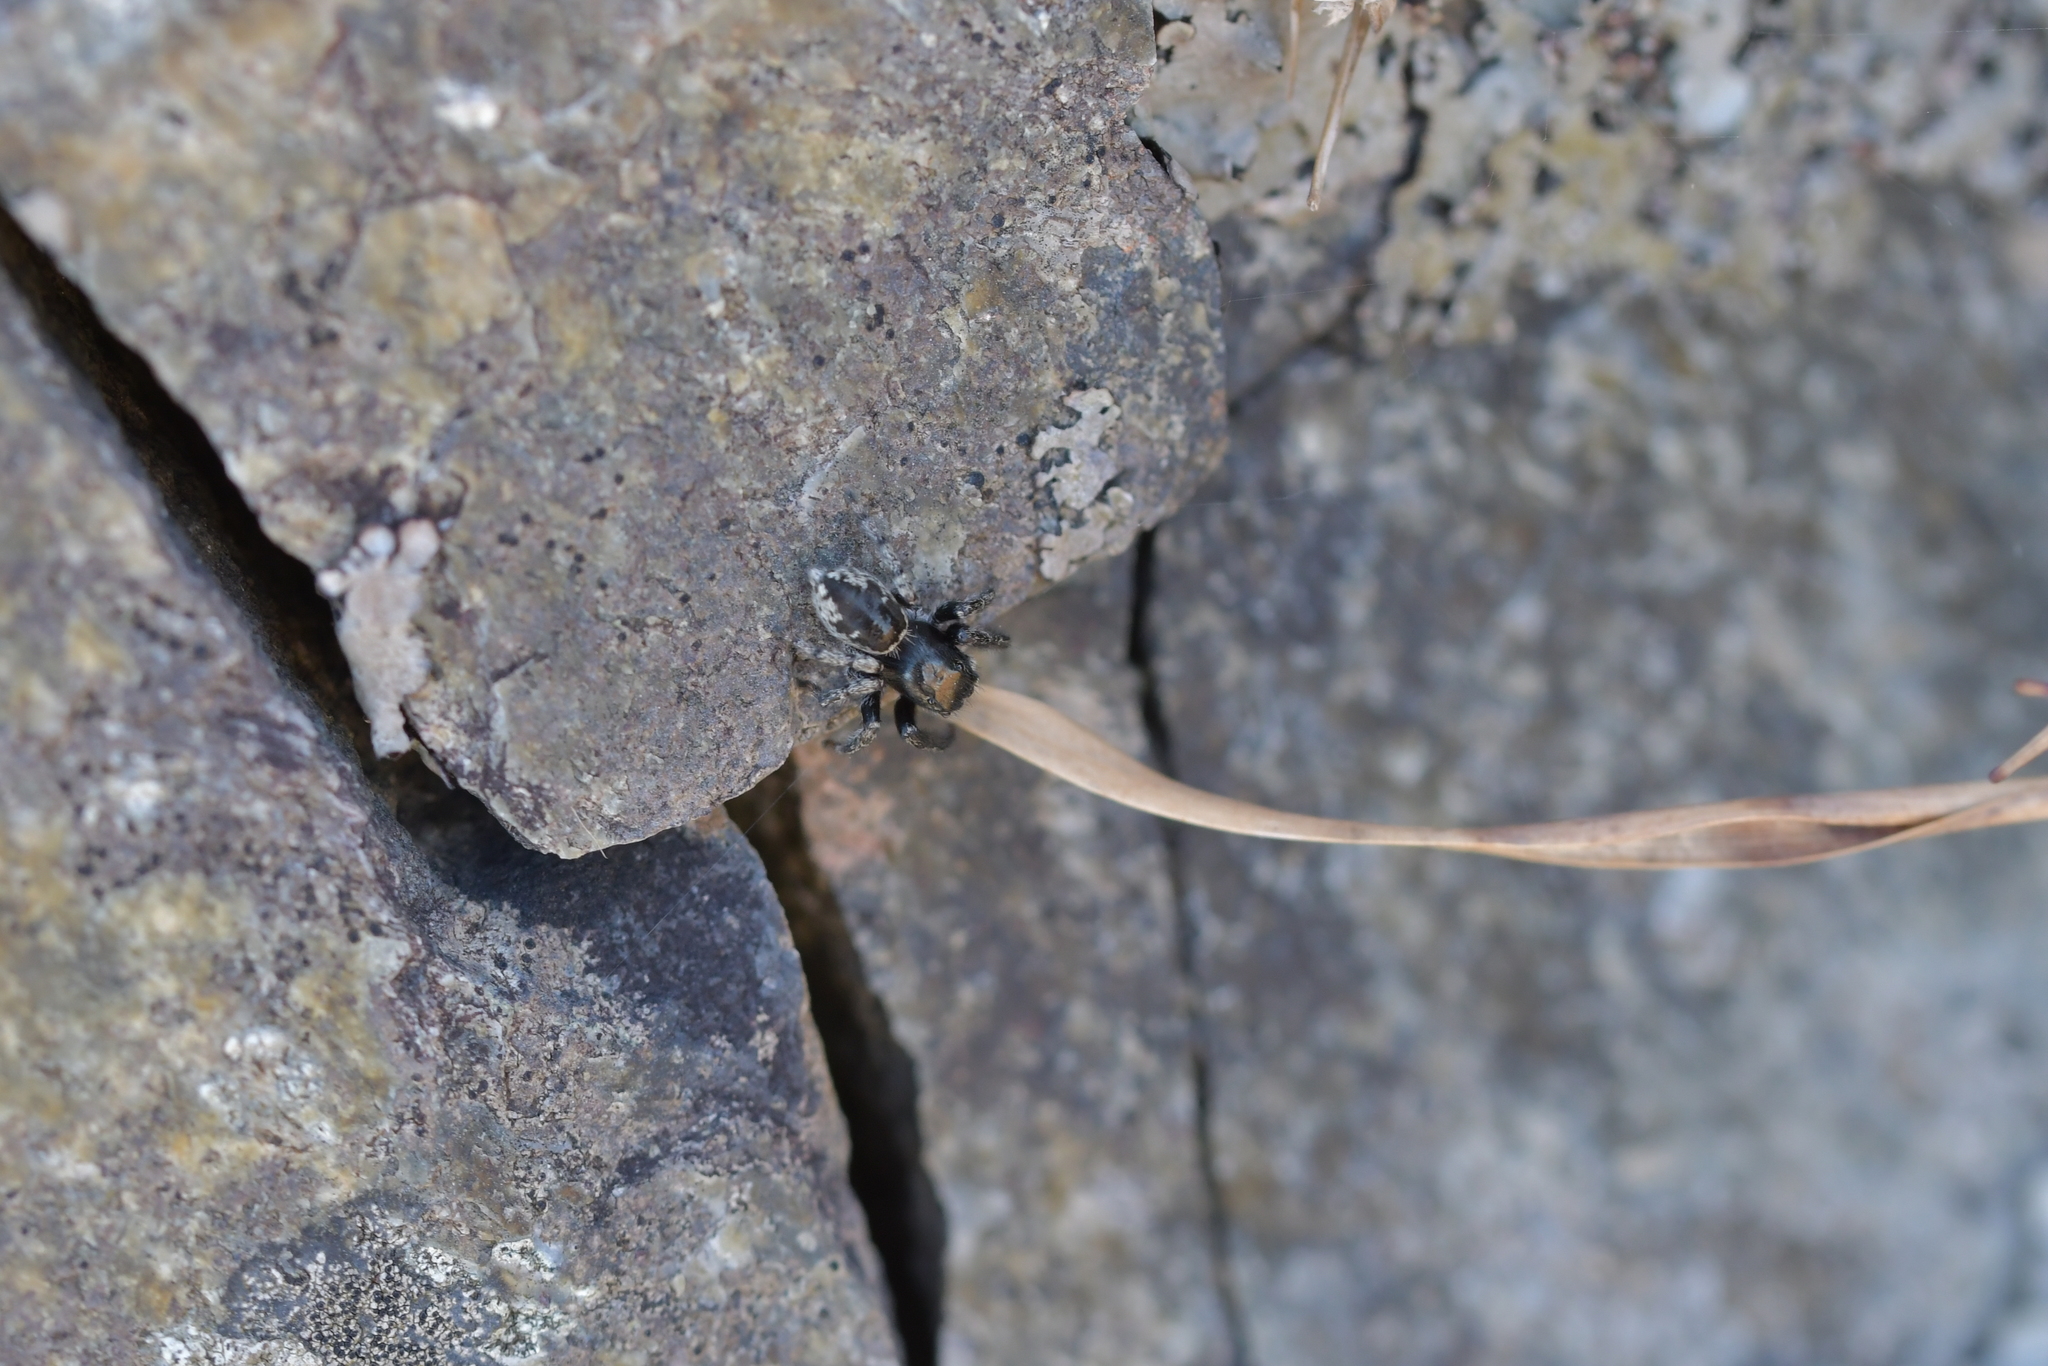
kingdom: Animalia
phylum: Arthropoda
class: Arachnida
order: Araneae
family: Salticidae
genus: Marpissa
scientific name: Marpissa marina
